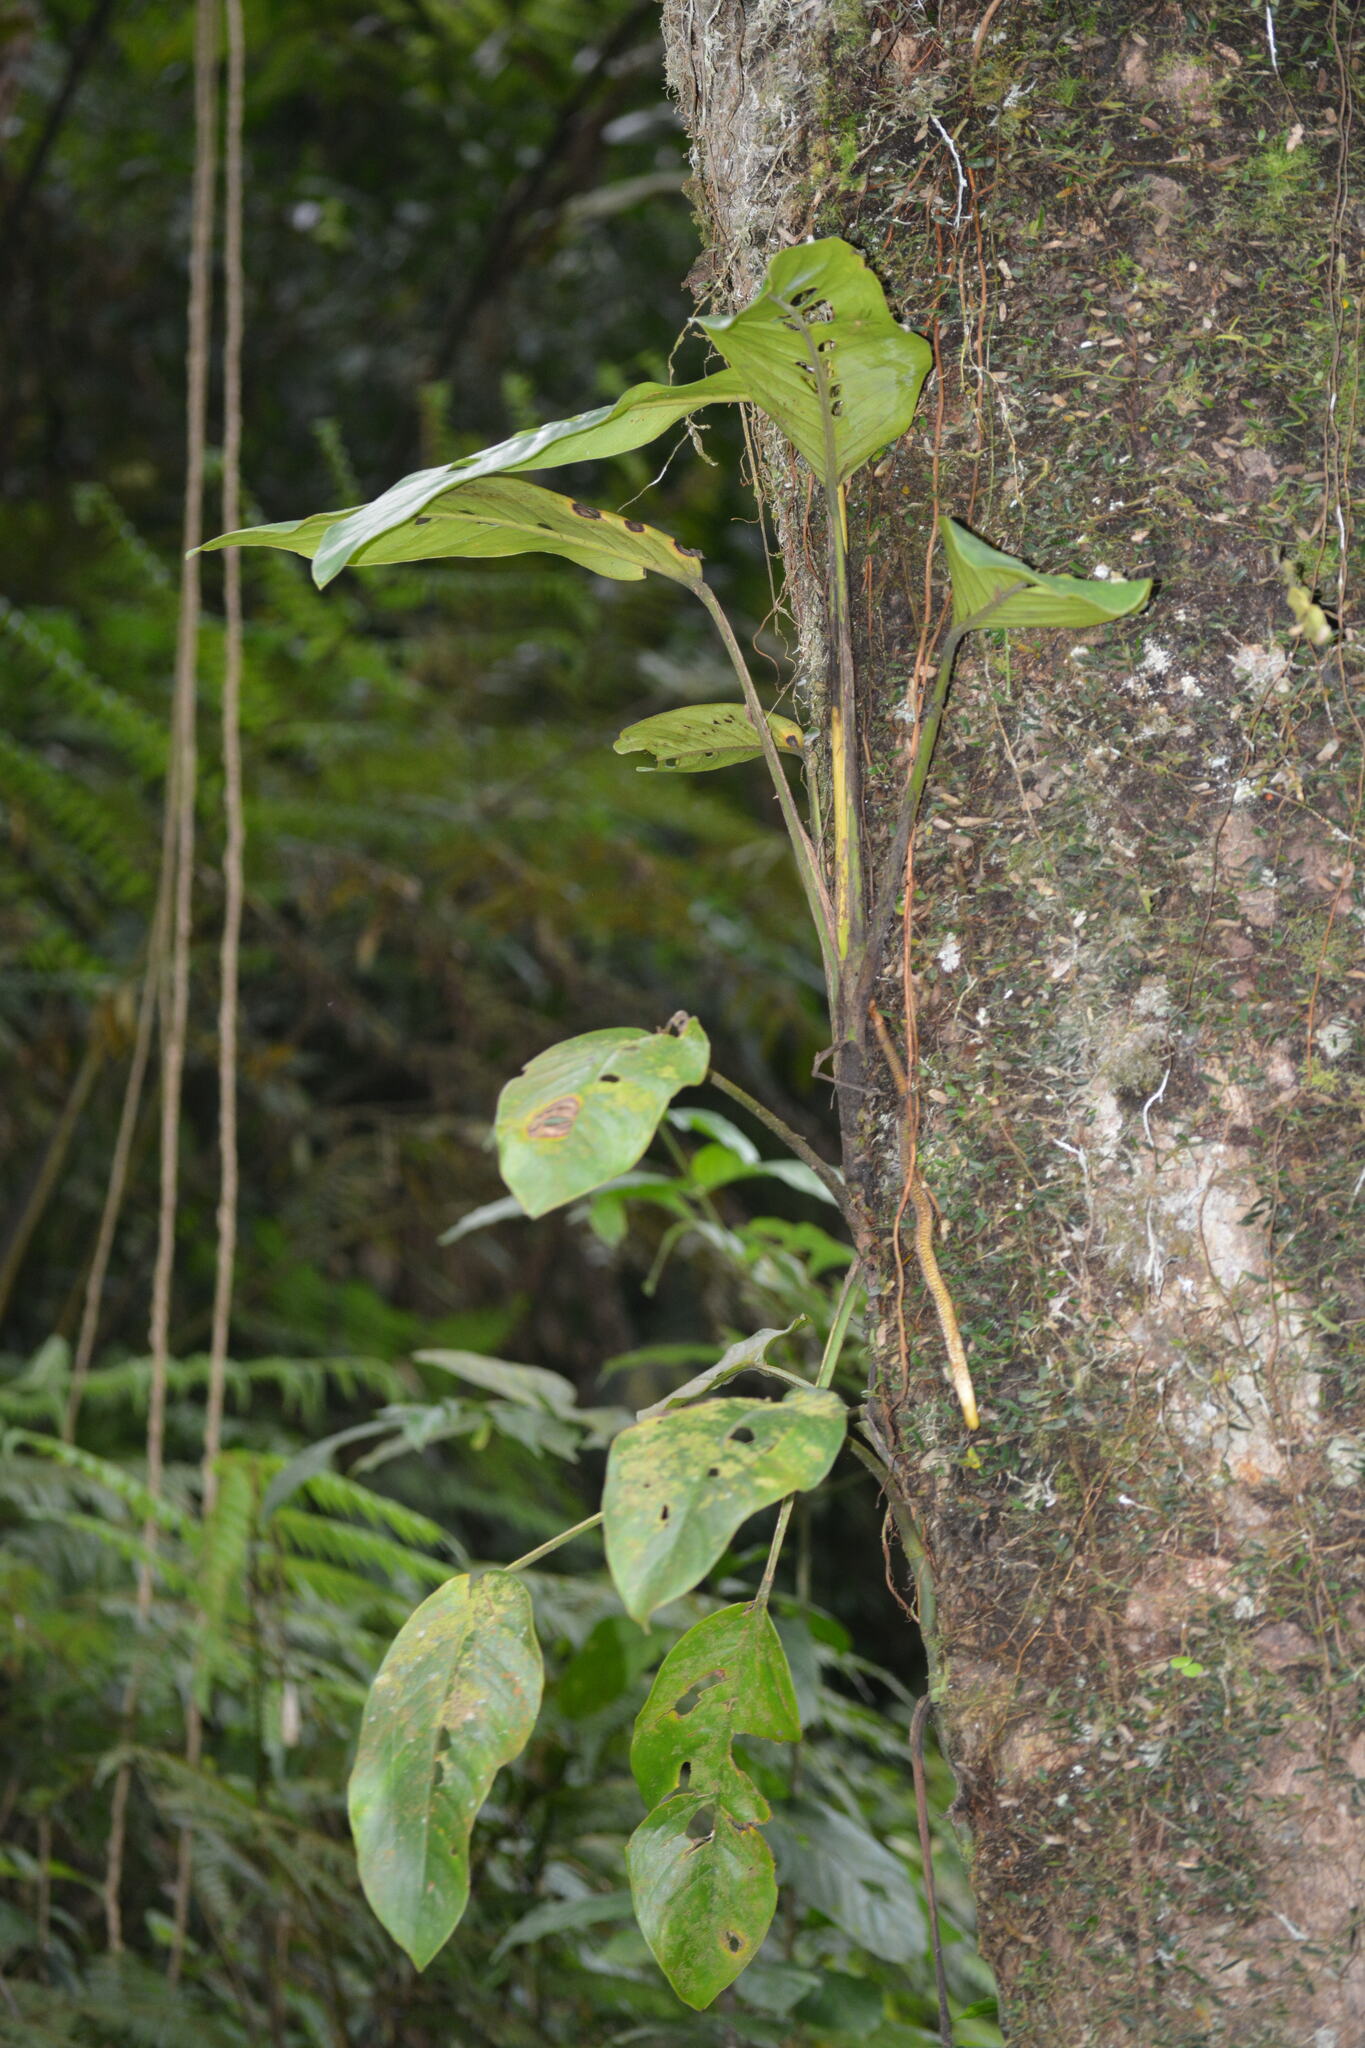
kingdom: Plantae
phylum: Tracheophyta
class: Liliopsida
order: Alismatales
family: Araceae
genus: Rhaphidophora
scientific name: Rhaphidophora montana
